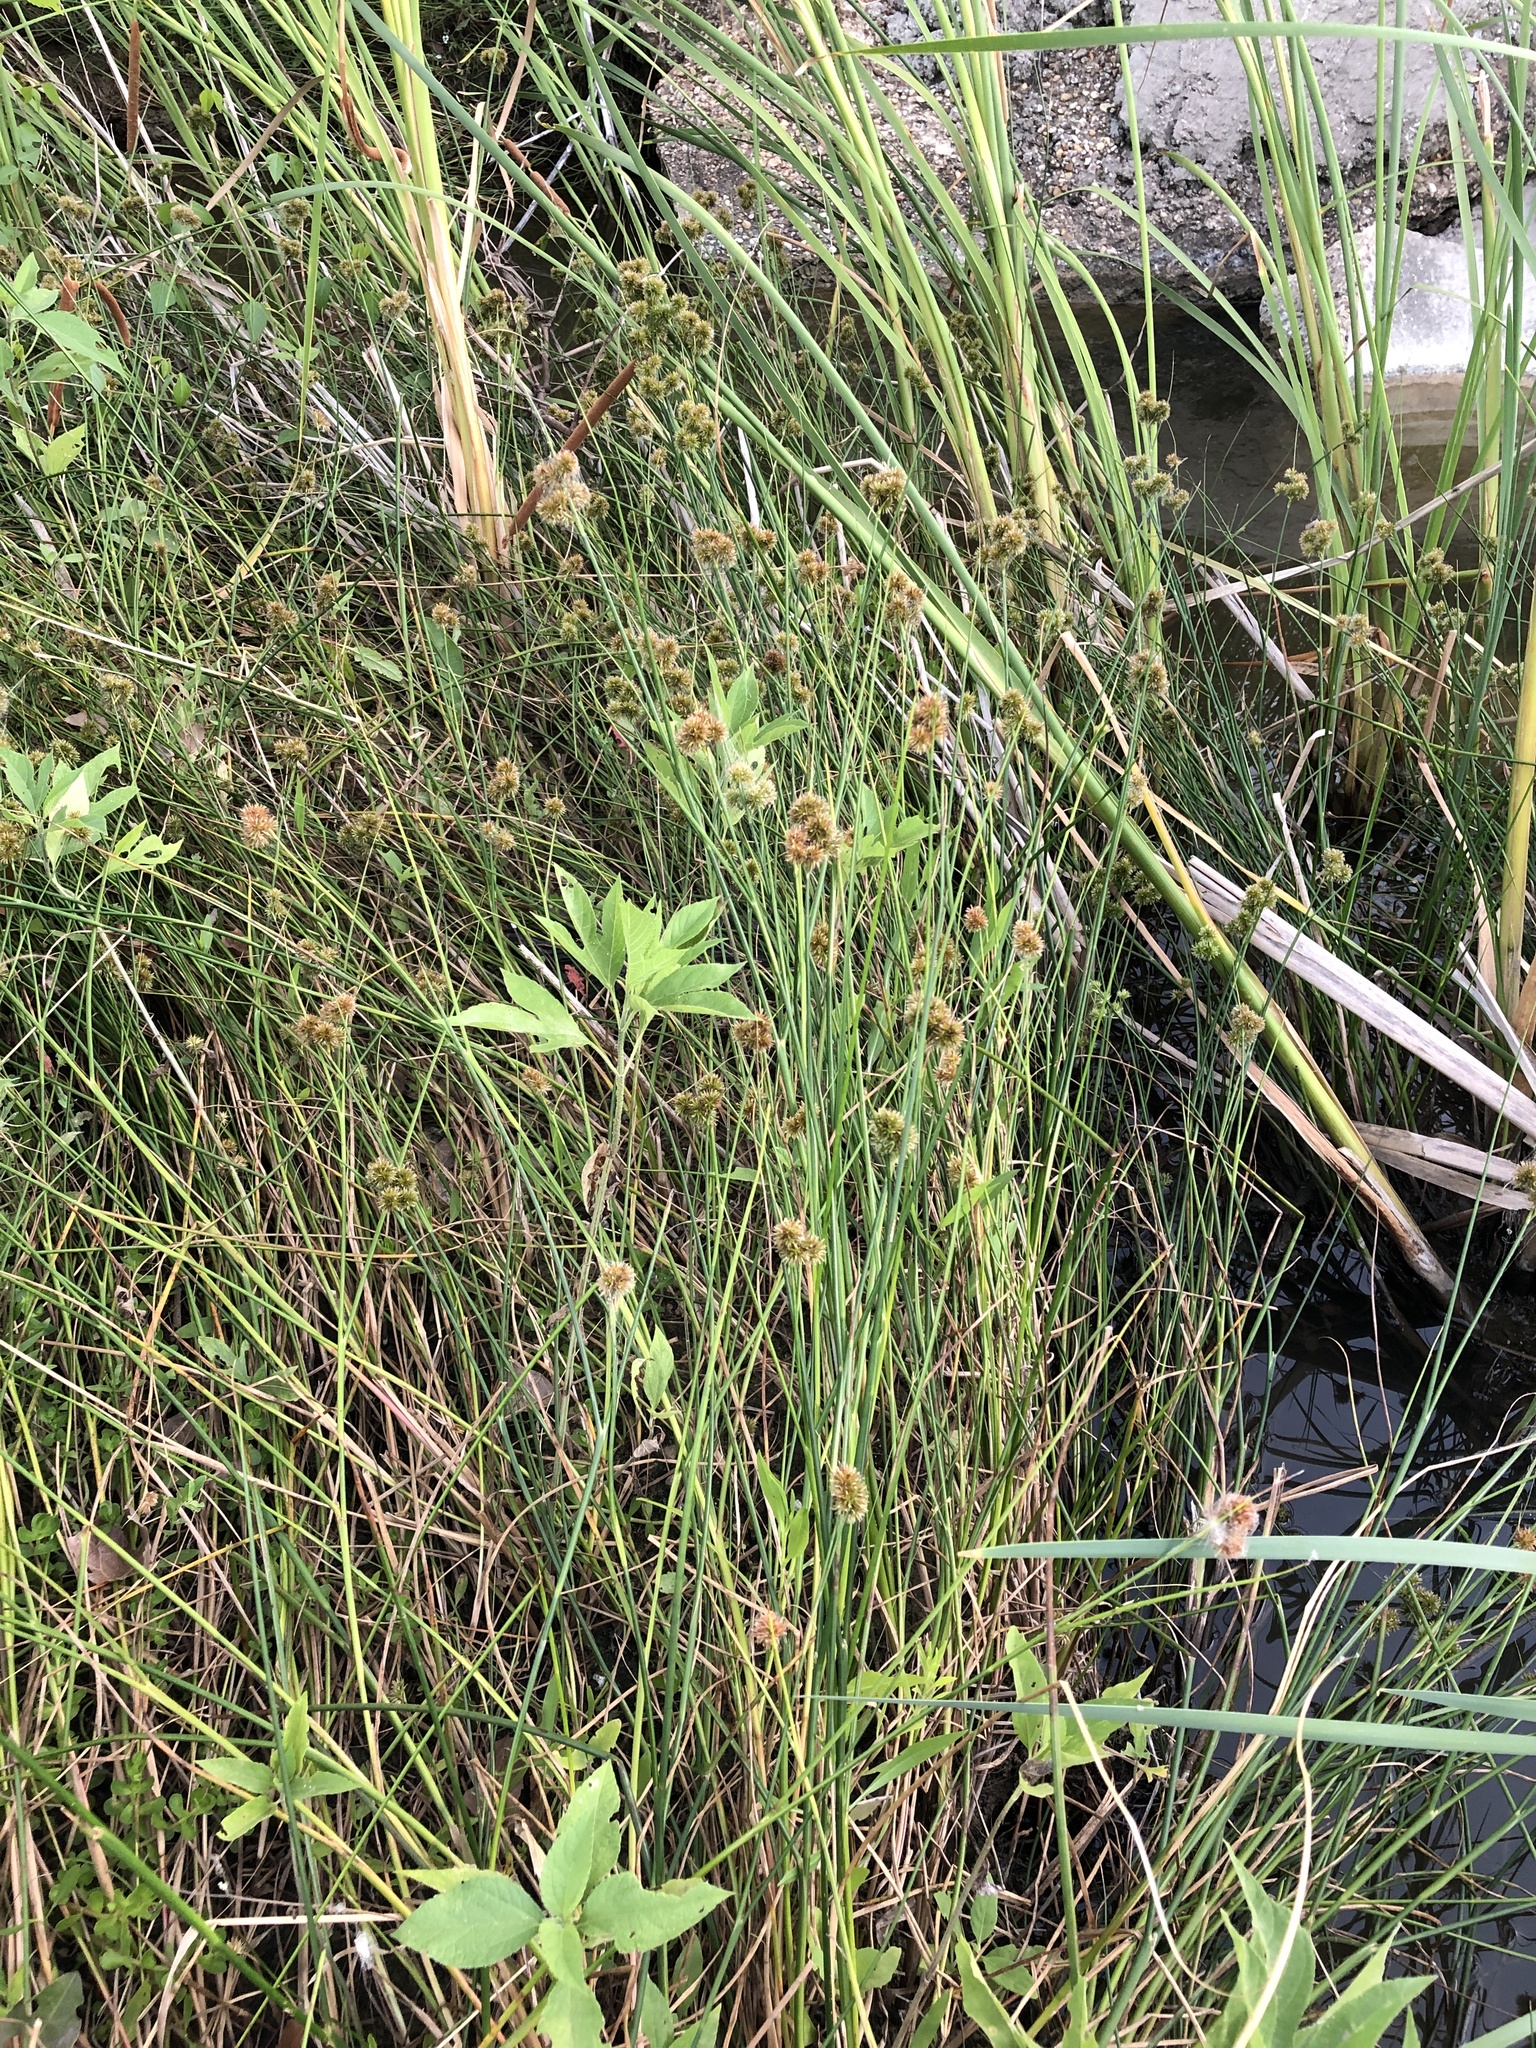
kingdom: Plantae
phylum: Tracheophyta
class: Liliopsida
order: Poales
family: Juncaceae
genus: Juncus
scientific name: Juncus torreyi
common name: Torrey's rush
